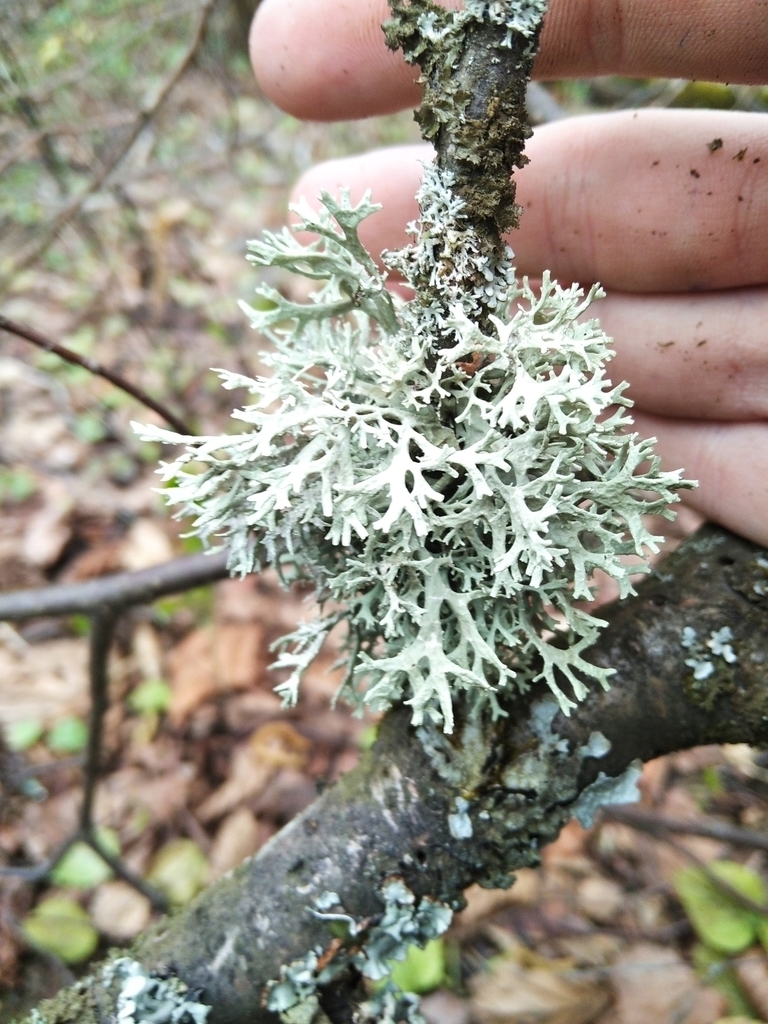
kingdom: Fungi
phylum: Ascomycota
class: Lecanoromycetes
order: Lecanorales
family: Parmeliaceae
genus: Evernia
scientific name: Evernia prunastri
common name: Oak moss
